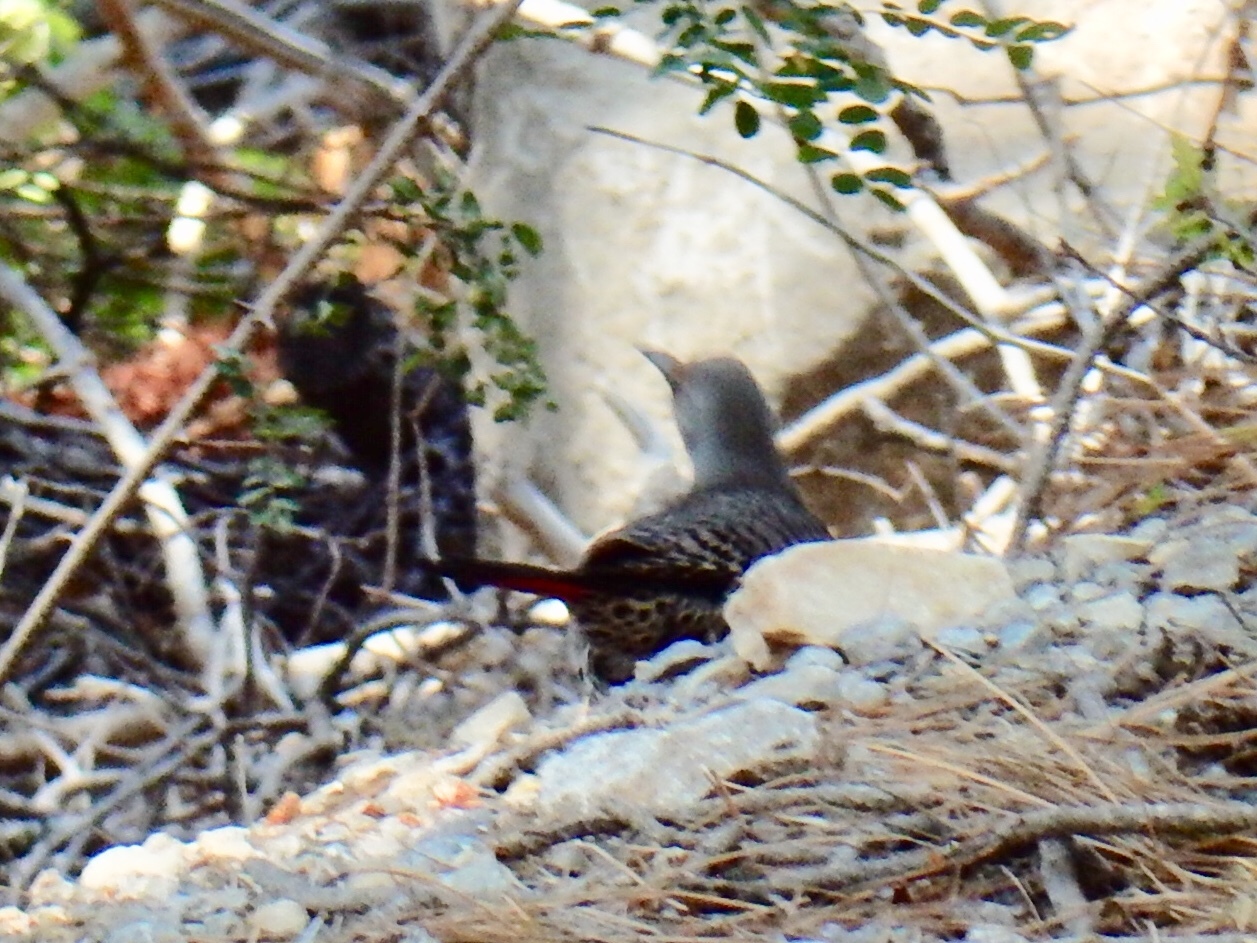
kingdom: Animalia
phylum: Chordata
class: Aves
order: Piciformes
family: Picidae
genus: Colaptes
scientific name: Colaptes auratus
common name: Northern flicker
